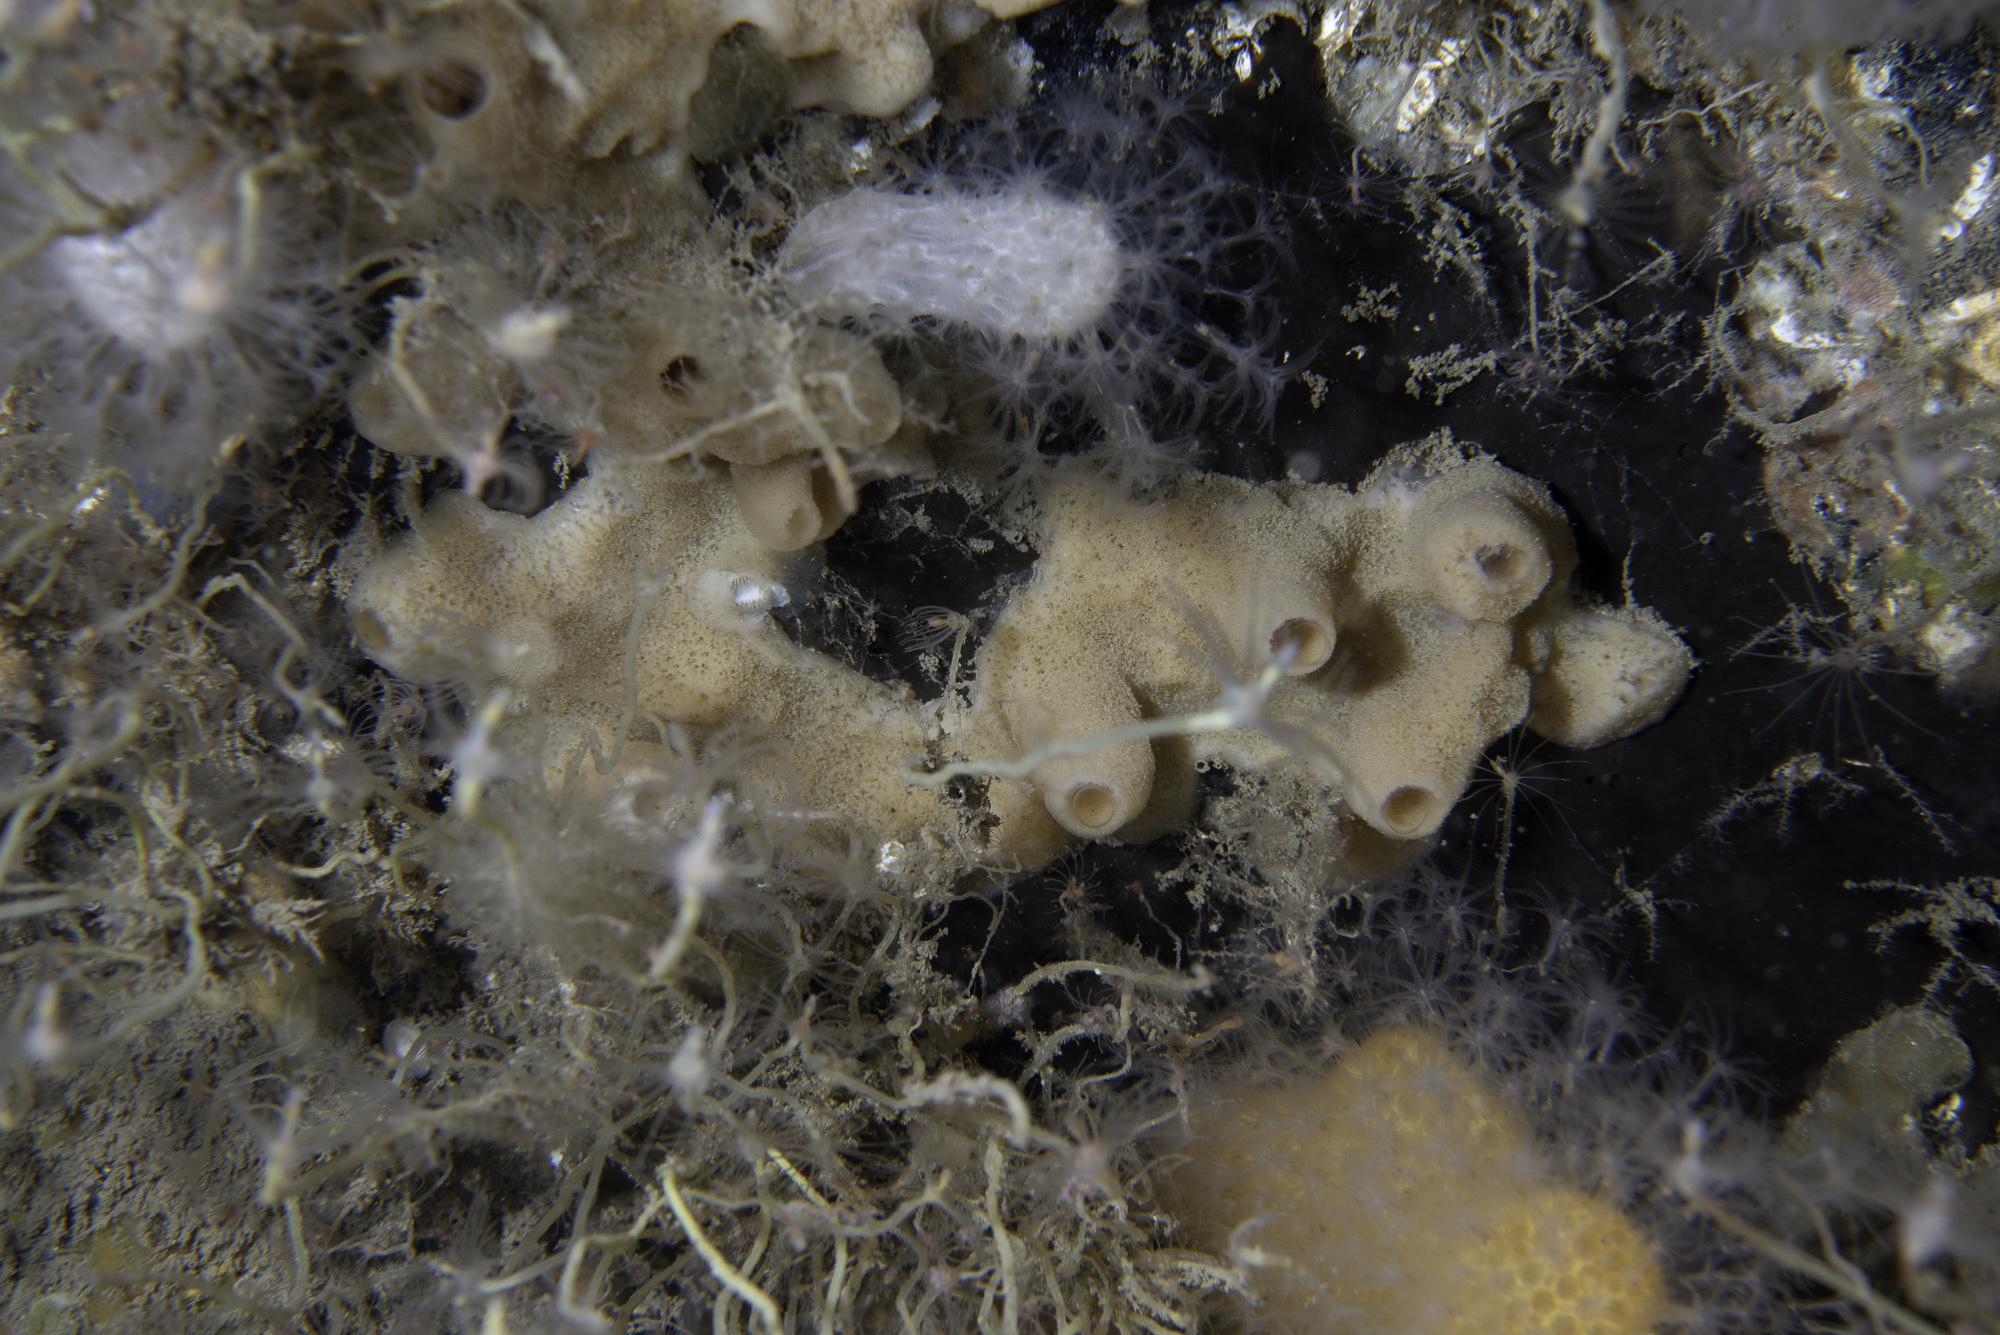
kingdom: Animalia
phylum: Porifera
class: Demospongiae
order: Tetractinellida
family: Ancorinidae
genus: Dercitus
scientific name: Dercitus bucklandi
